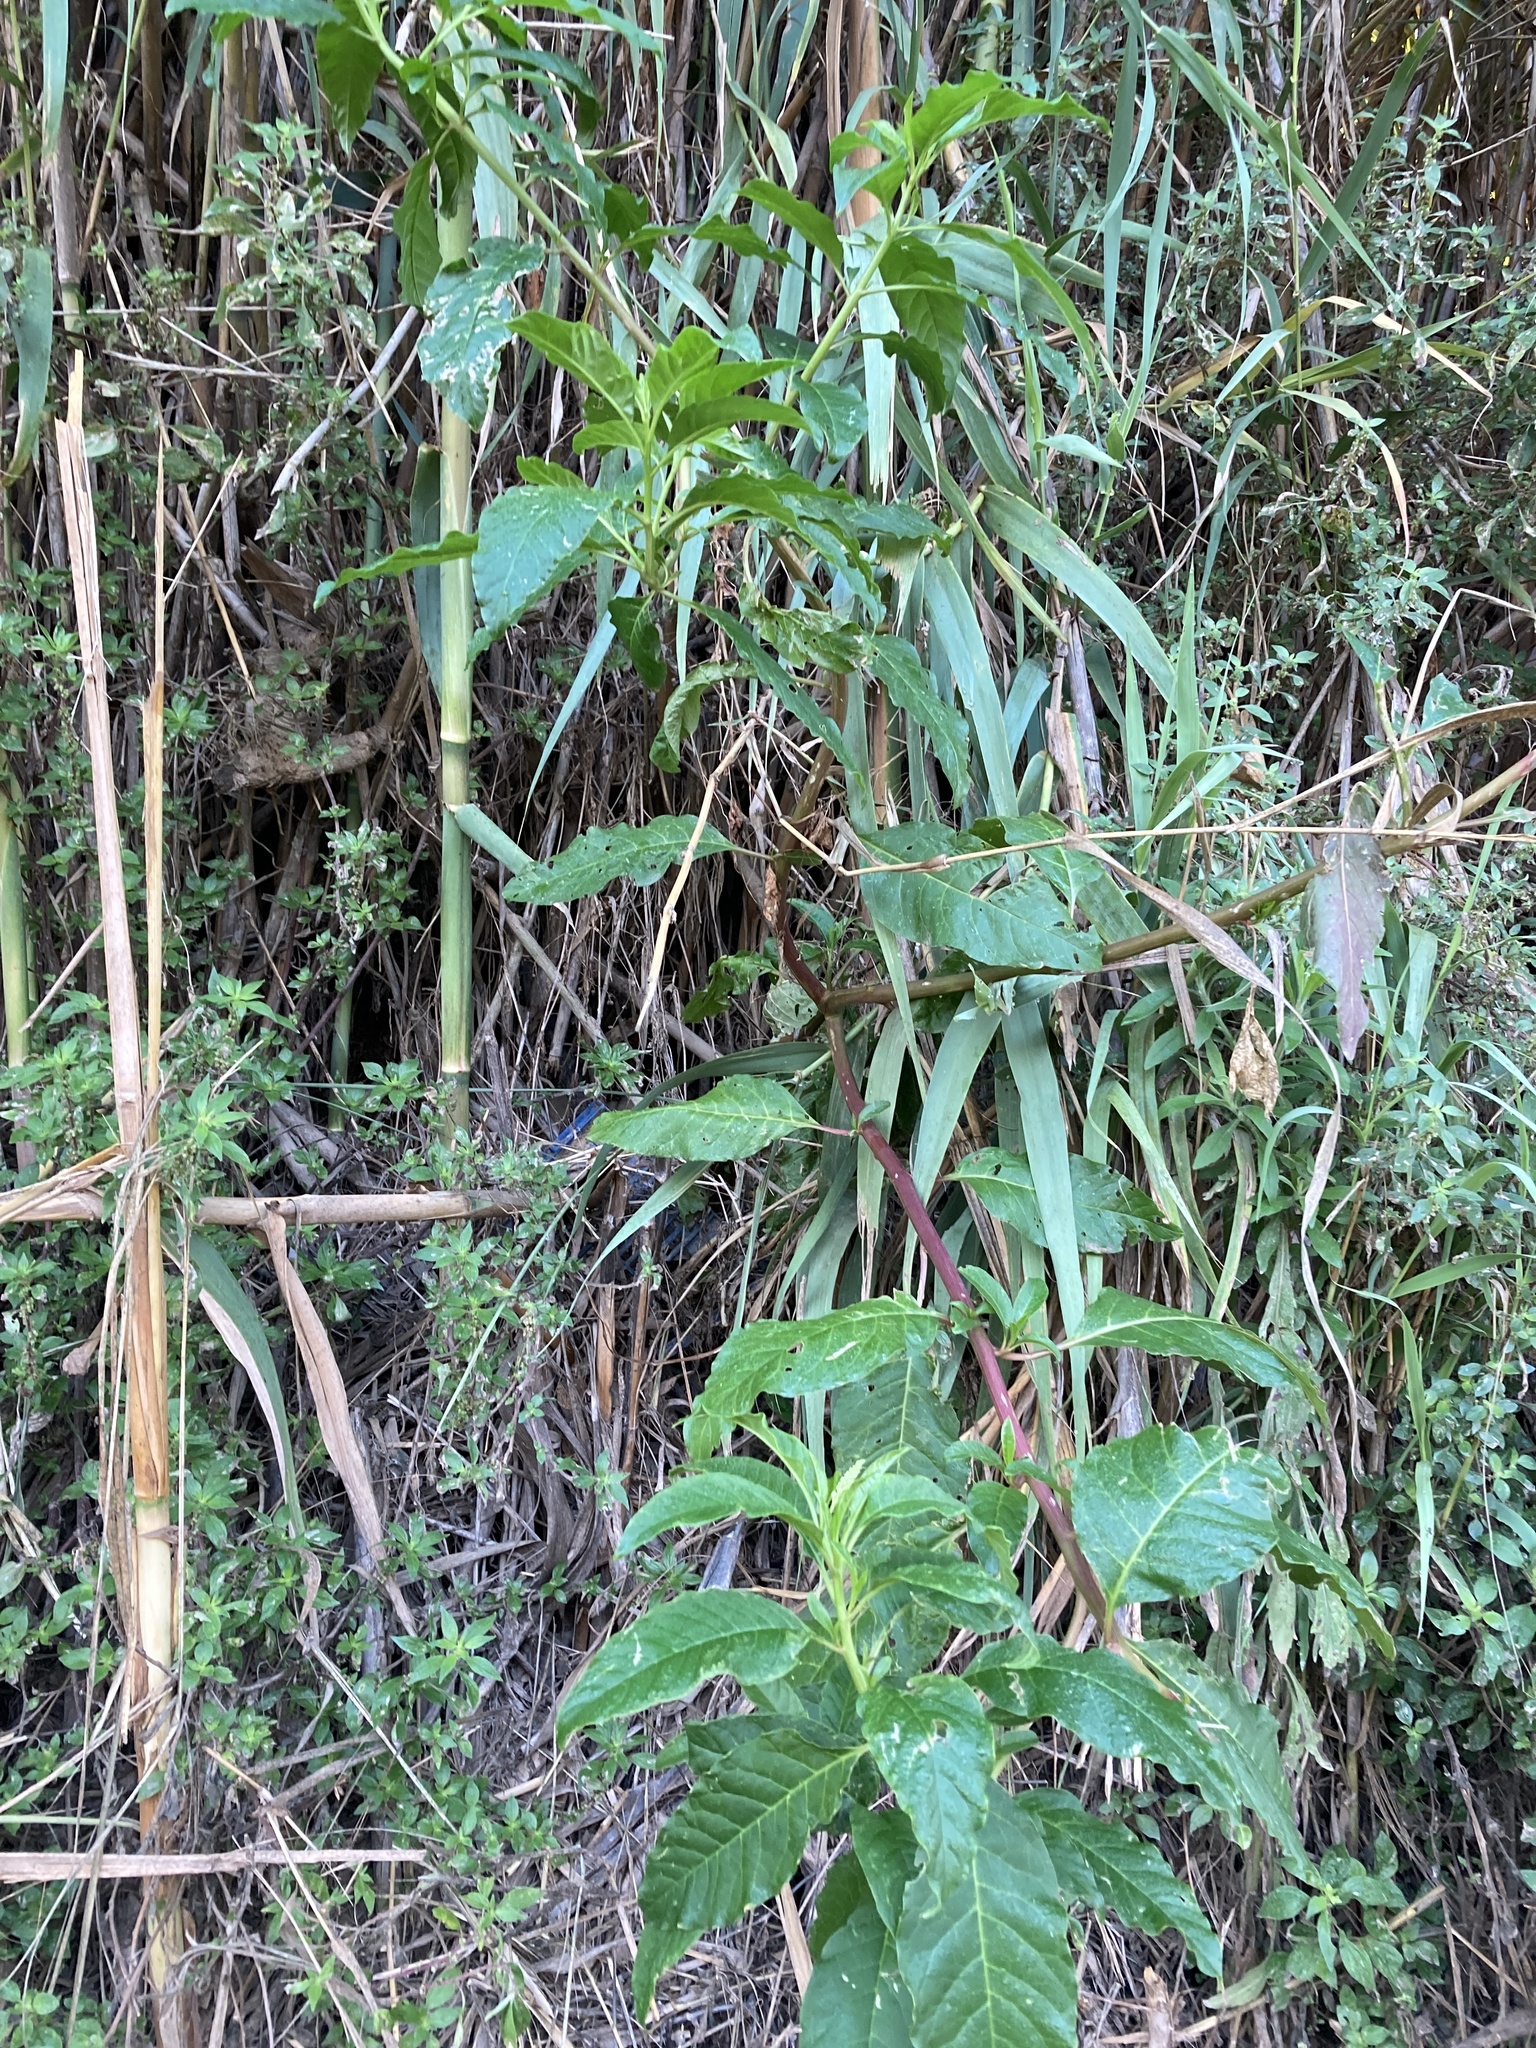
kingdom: Plantae
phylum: Tracheophyta
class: Magnoliopsida
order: Caryophyllales
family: Phytolaccaceae
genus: Phytolacca
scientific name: Phytolacca americana
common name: American pokeweed
